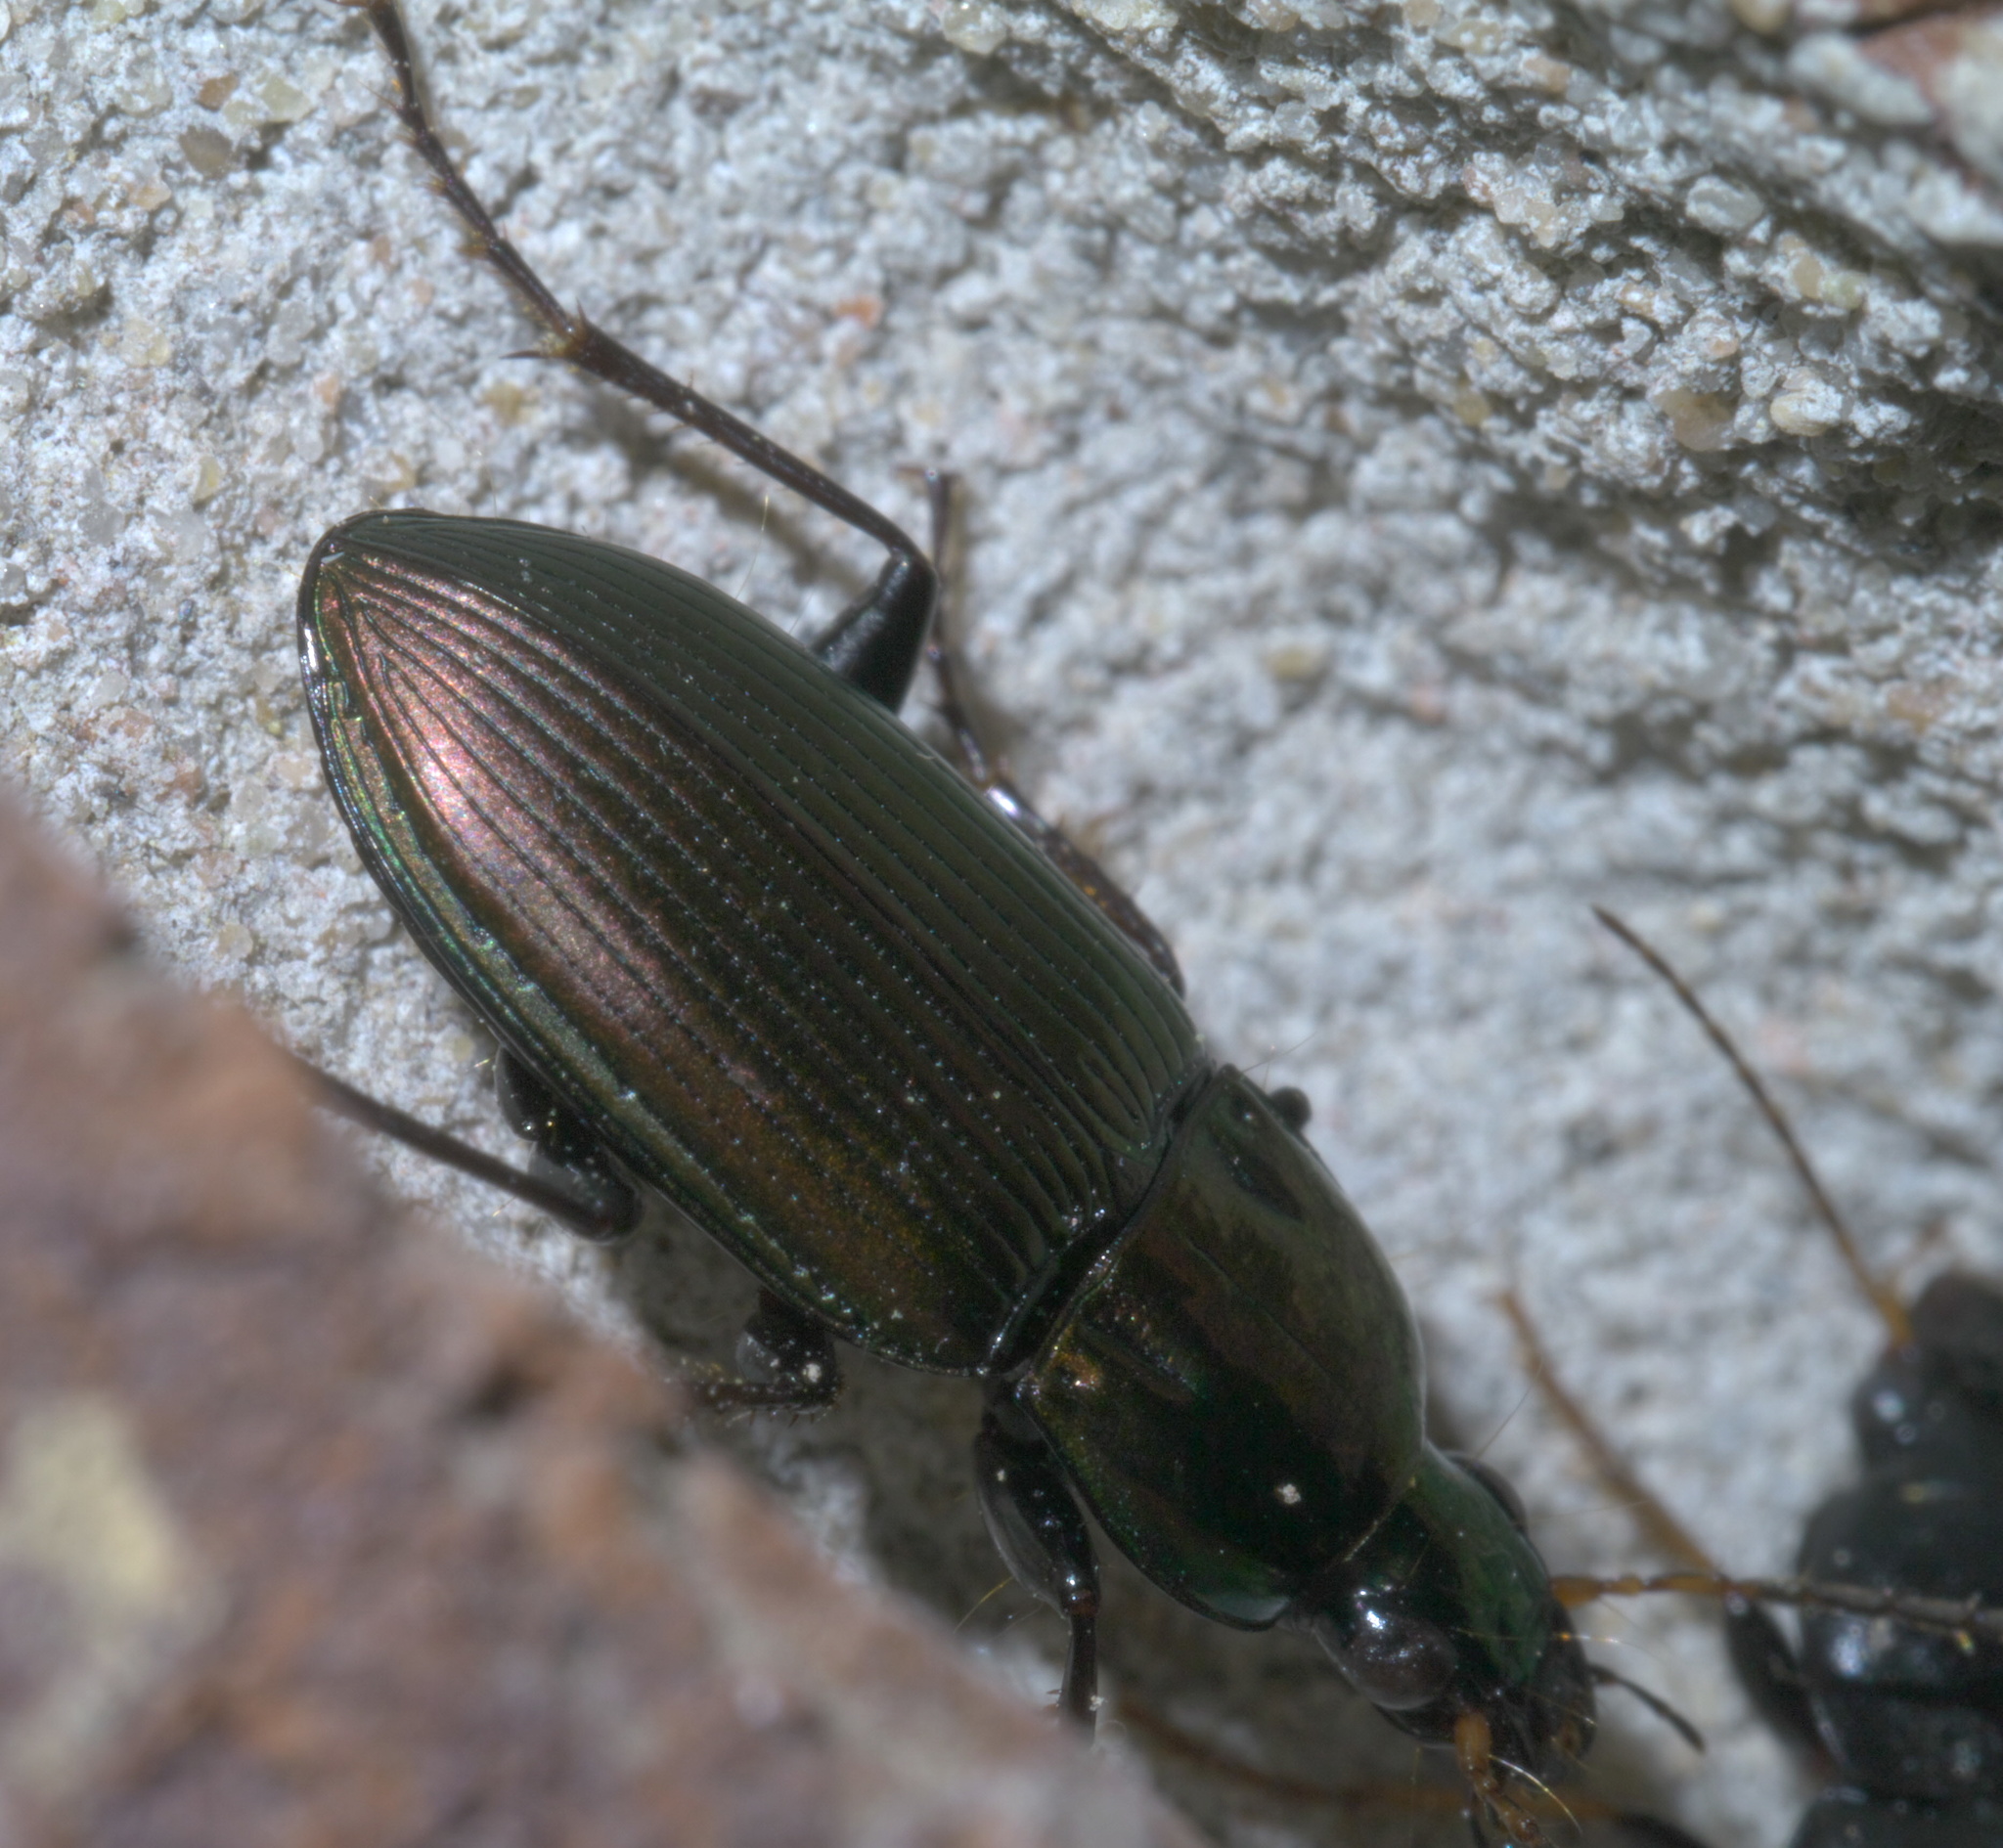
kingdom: Animalia
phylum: Arthropoda
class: Insecta
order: Coleoptera
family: Carabidae
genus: Poecilus
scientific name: Poecilus chalcites
